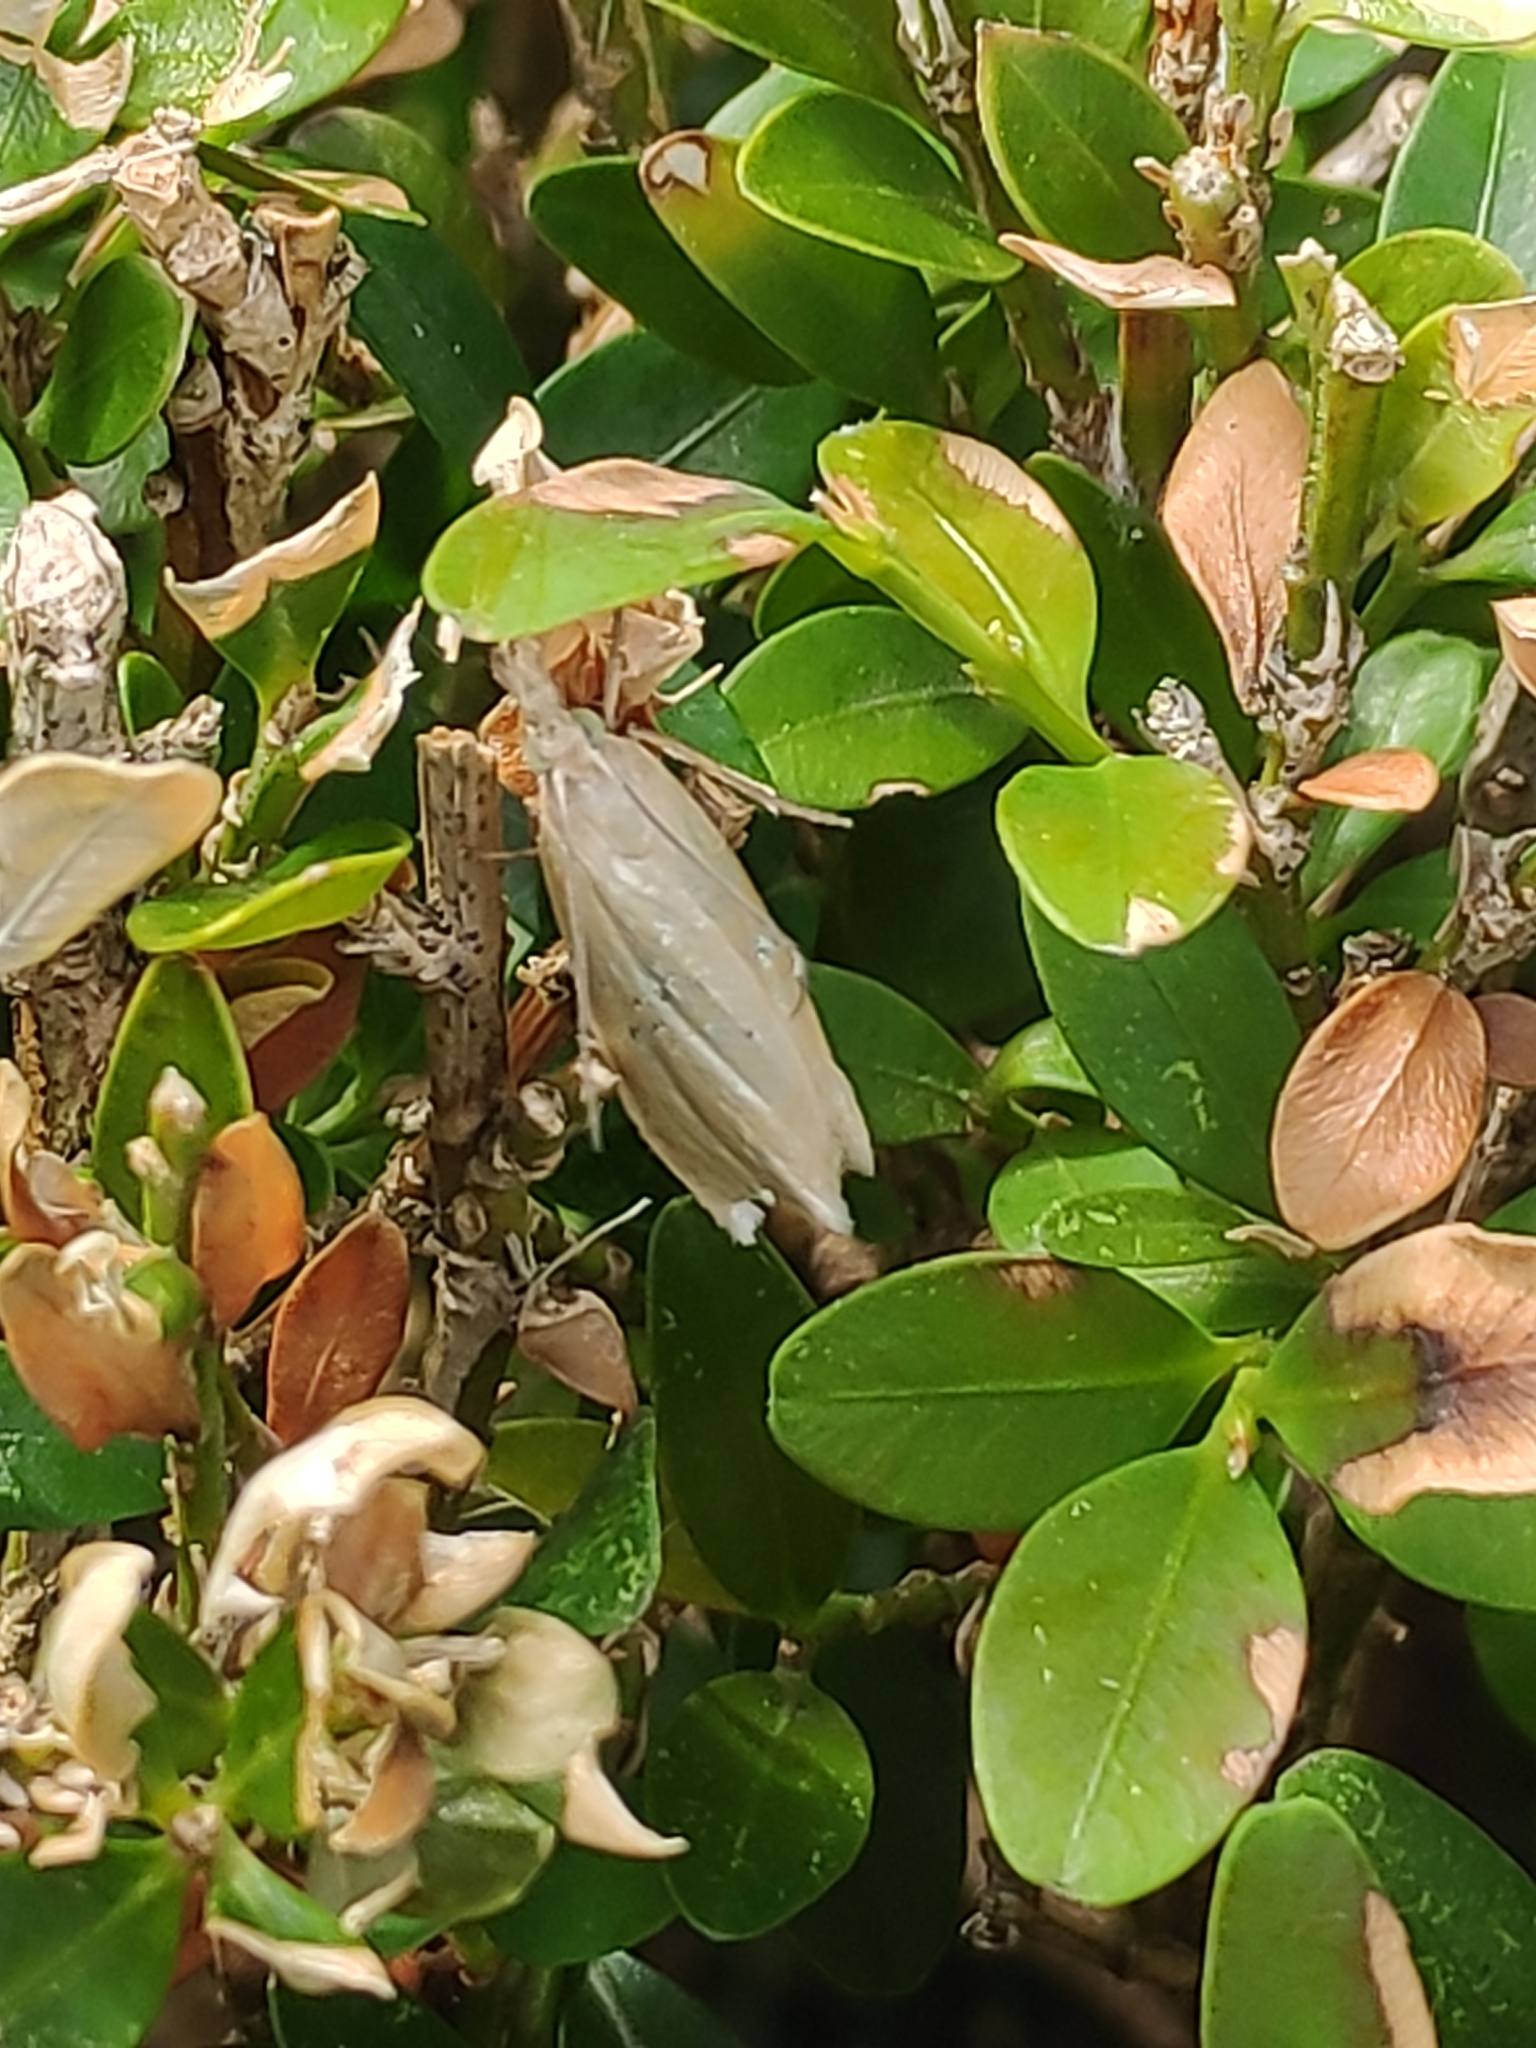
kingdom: Animalia
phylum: Arthropoda
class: Insecta
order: Lepidoptera
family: Crambidae
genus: Crambus
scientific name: Crambus perlellus
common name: Yellow satin veneer
